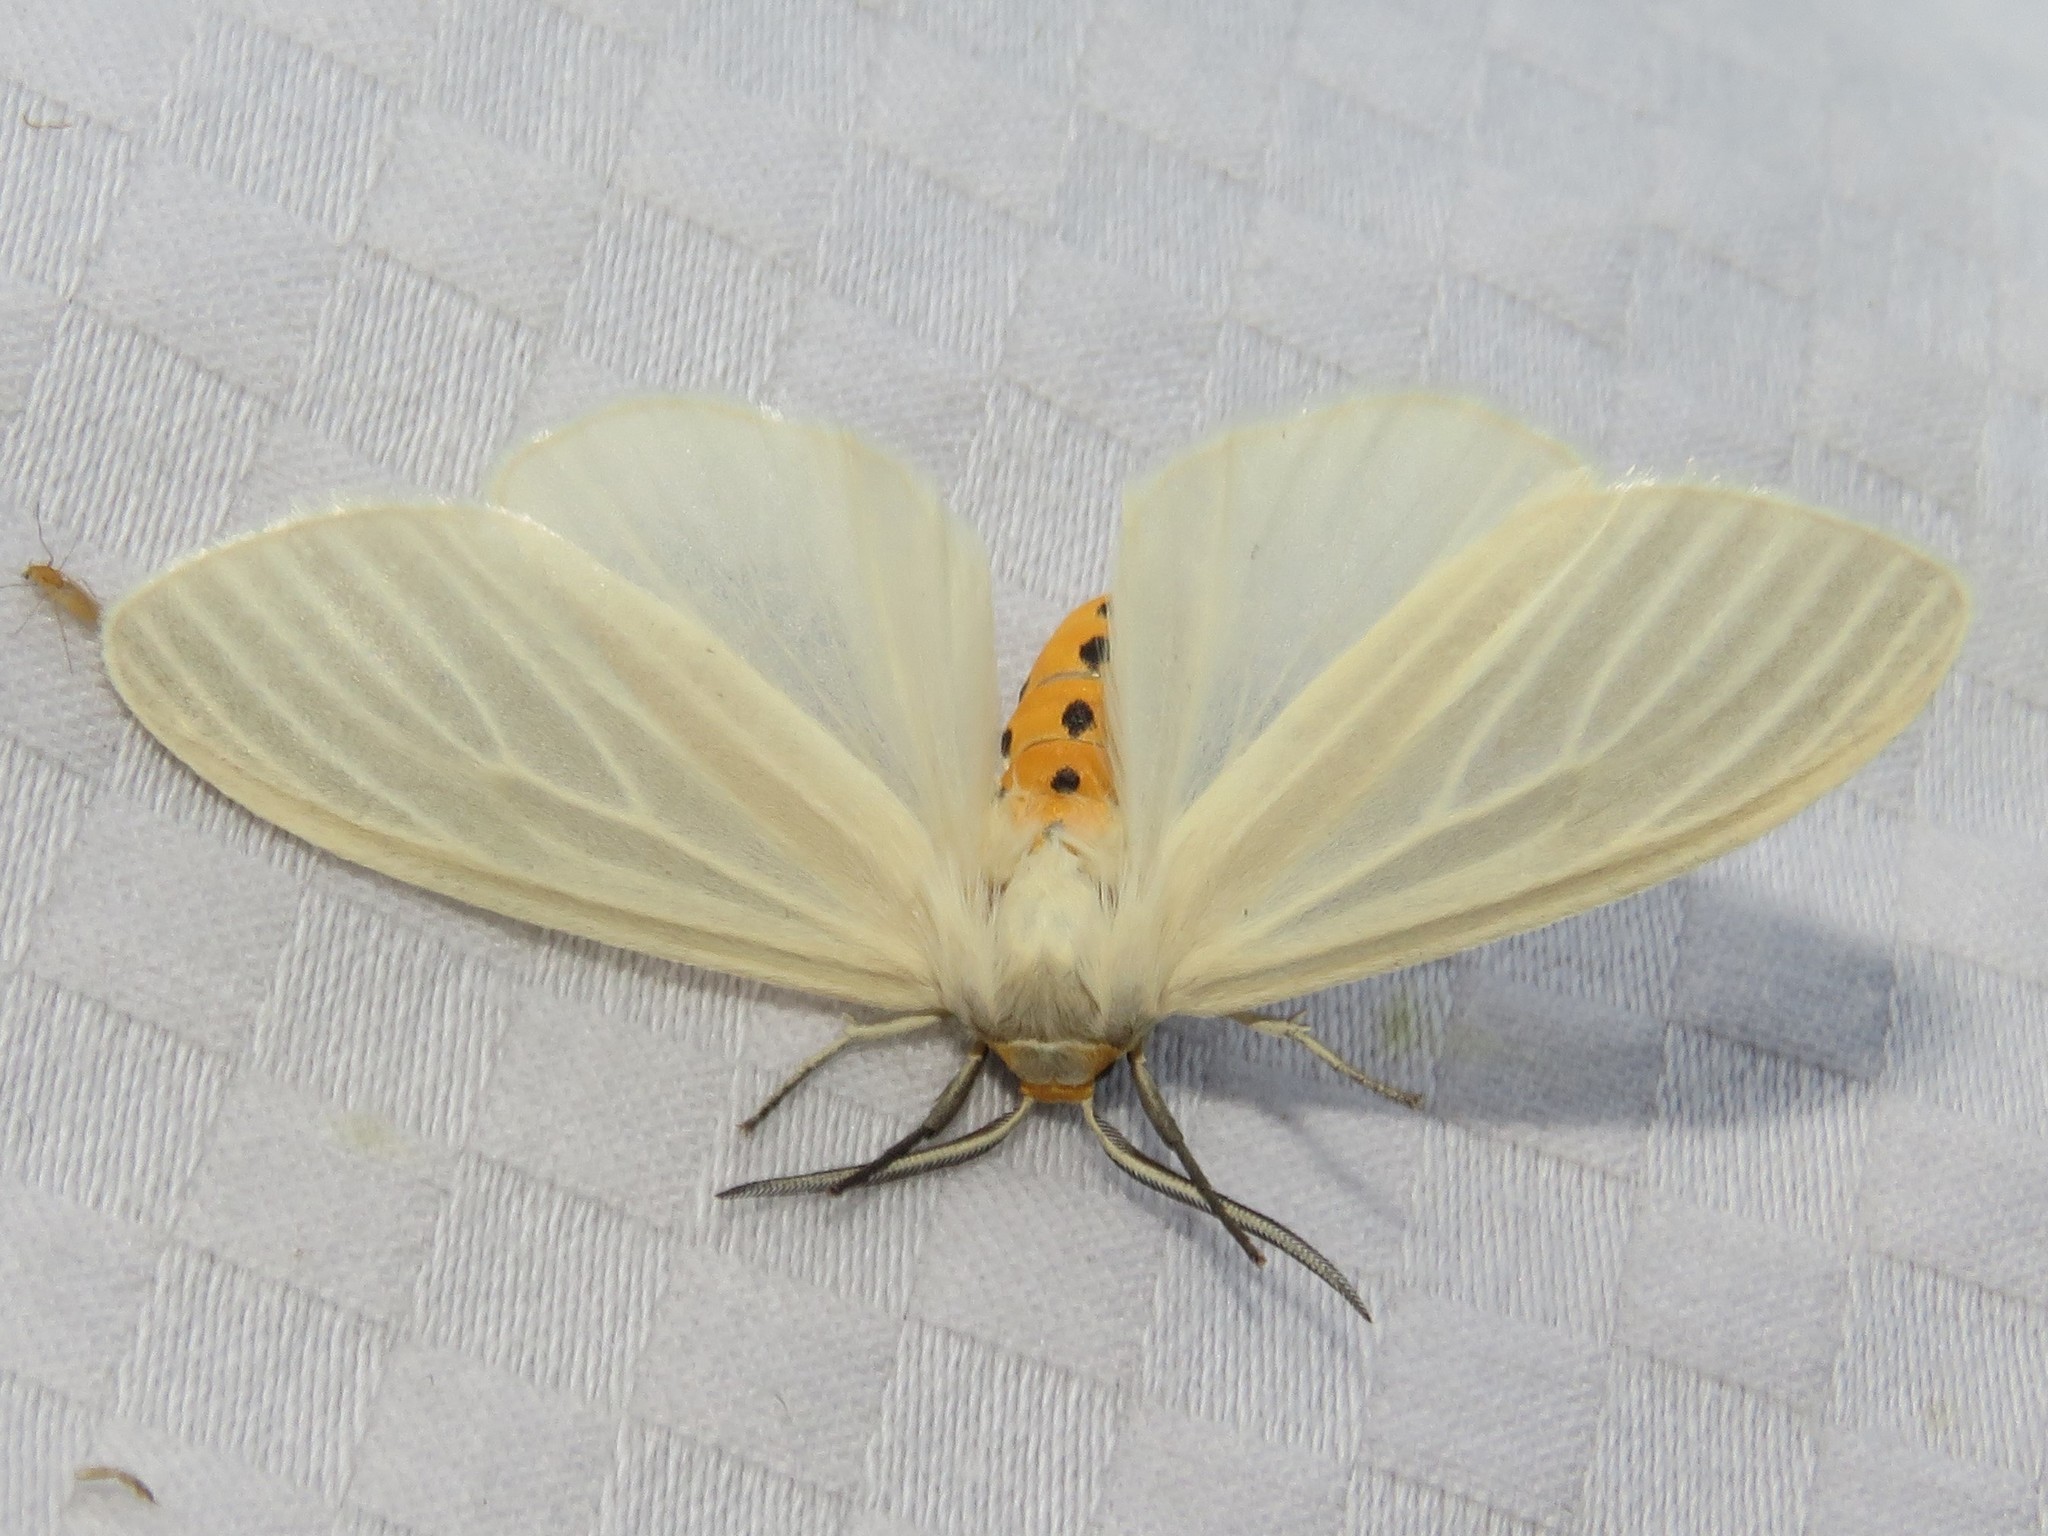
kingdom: Animalia
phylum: Arthropoda
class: Insecta
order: Lepidoptera
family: Erebidae
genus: Cycnia
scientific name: Cycnia oregonensis
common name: Oregon cycnia moth
